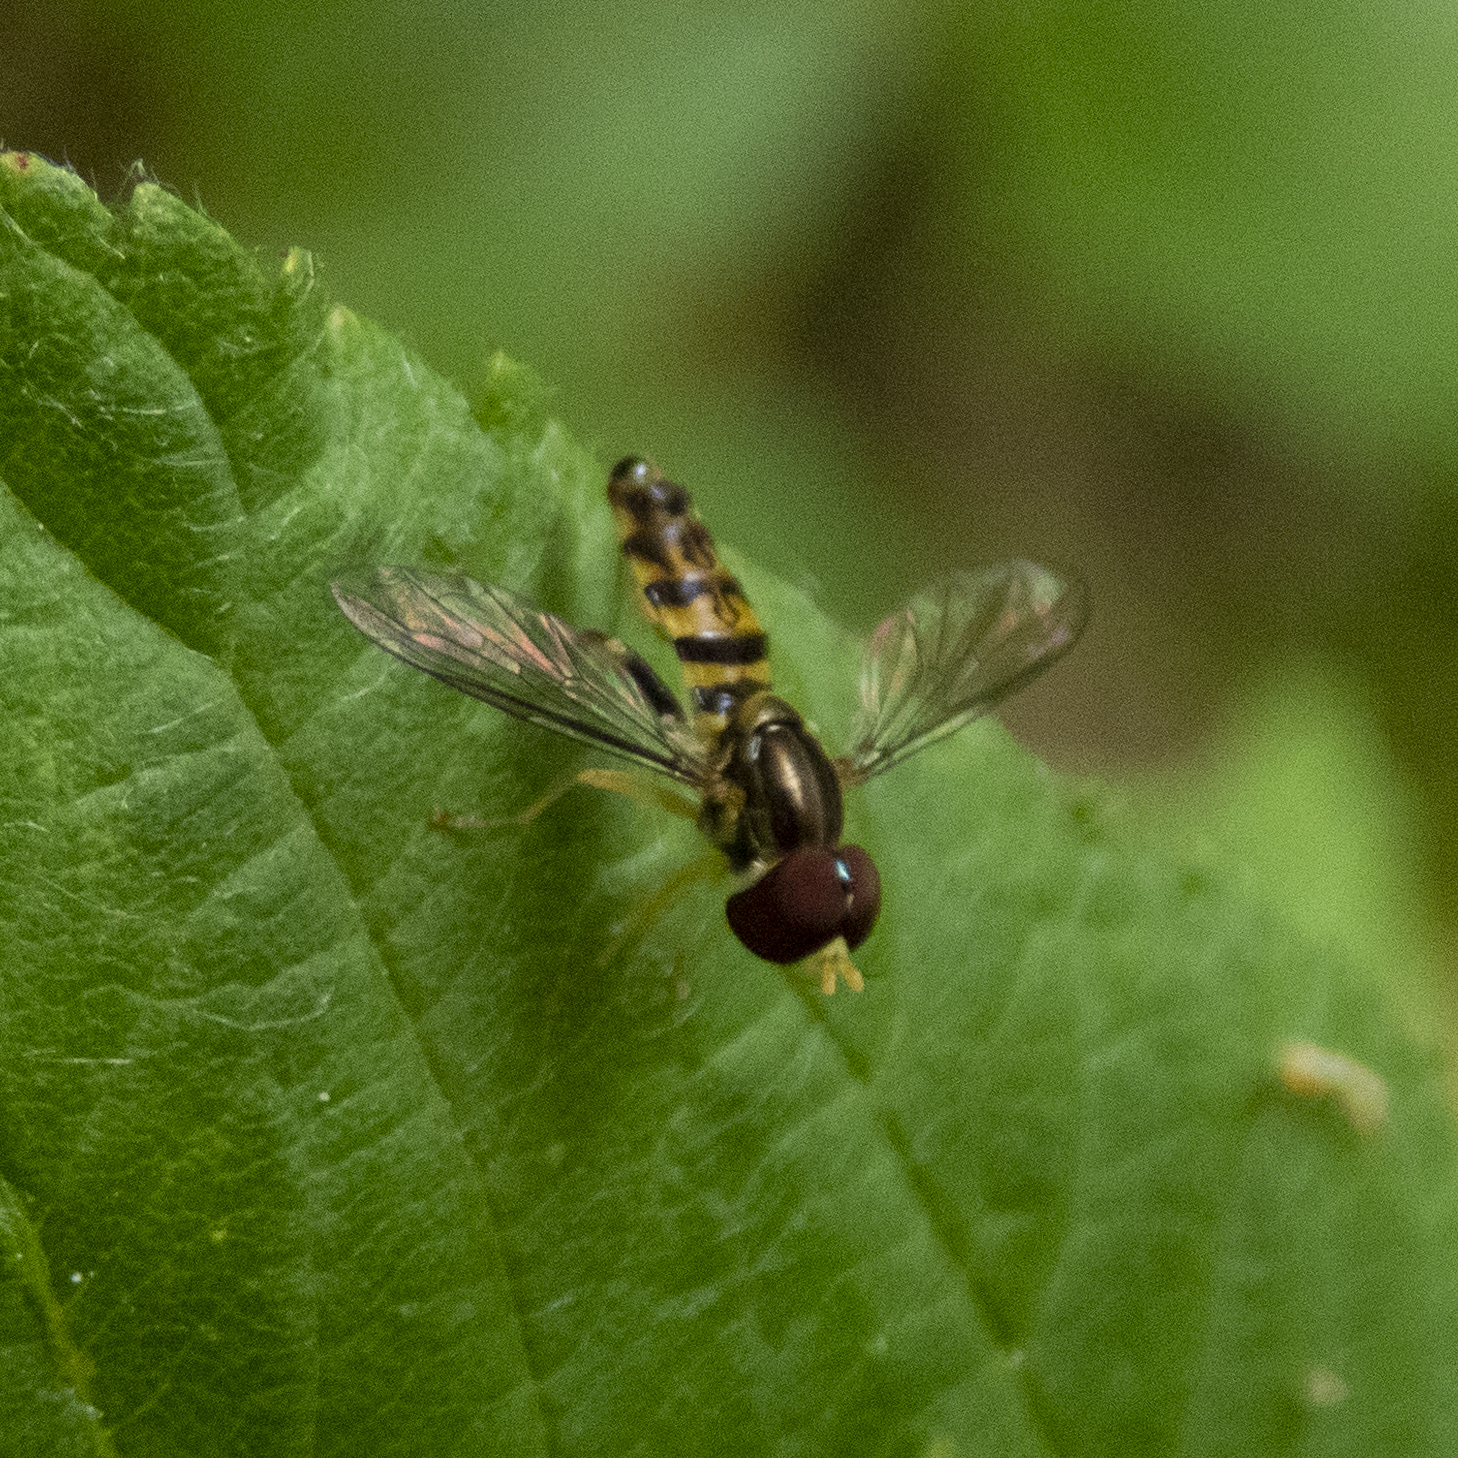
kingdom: Animalia
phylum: Arthropoda
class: Insecta
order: Diptera
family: Syrphidae
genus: Toxomerus
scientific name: Toxomerus geminatus
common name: Eastern calligrapher
